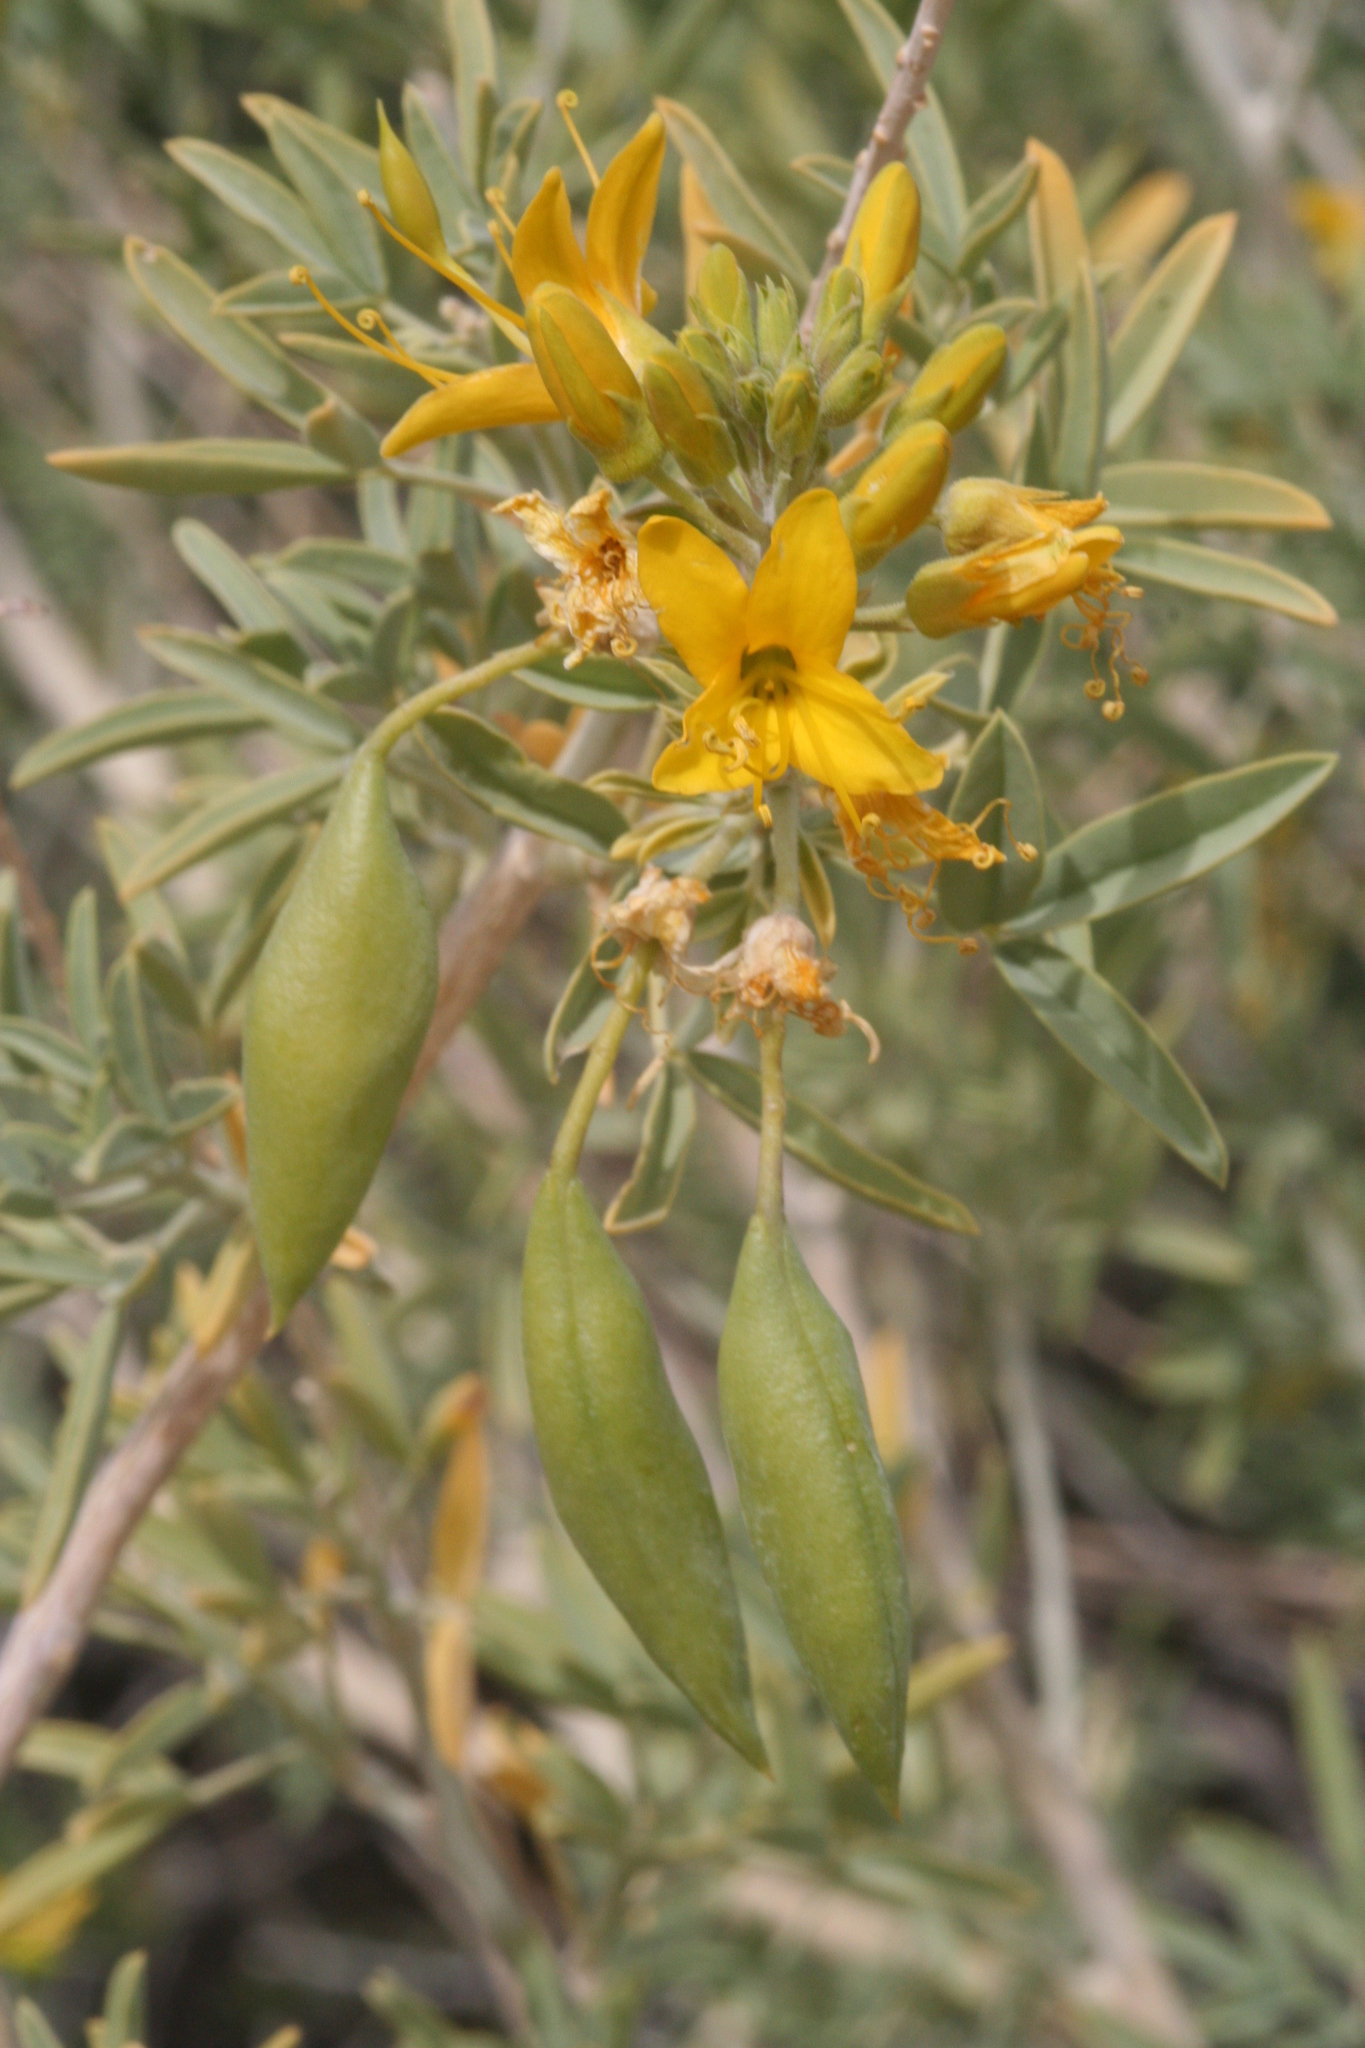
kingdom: Plantae
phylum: Tracheophyta
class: Magnoliopsida
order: Brassicales
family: Cleomaceae
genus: Cleomella
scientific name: Cleomella arborea
